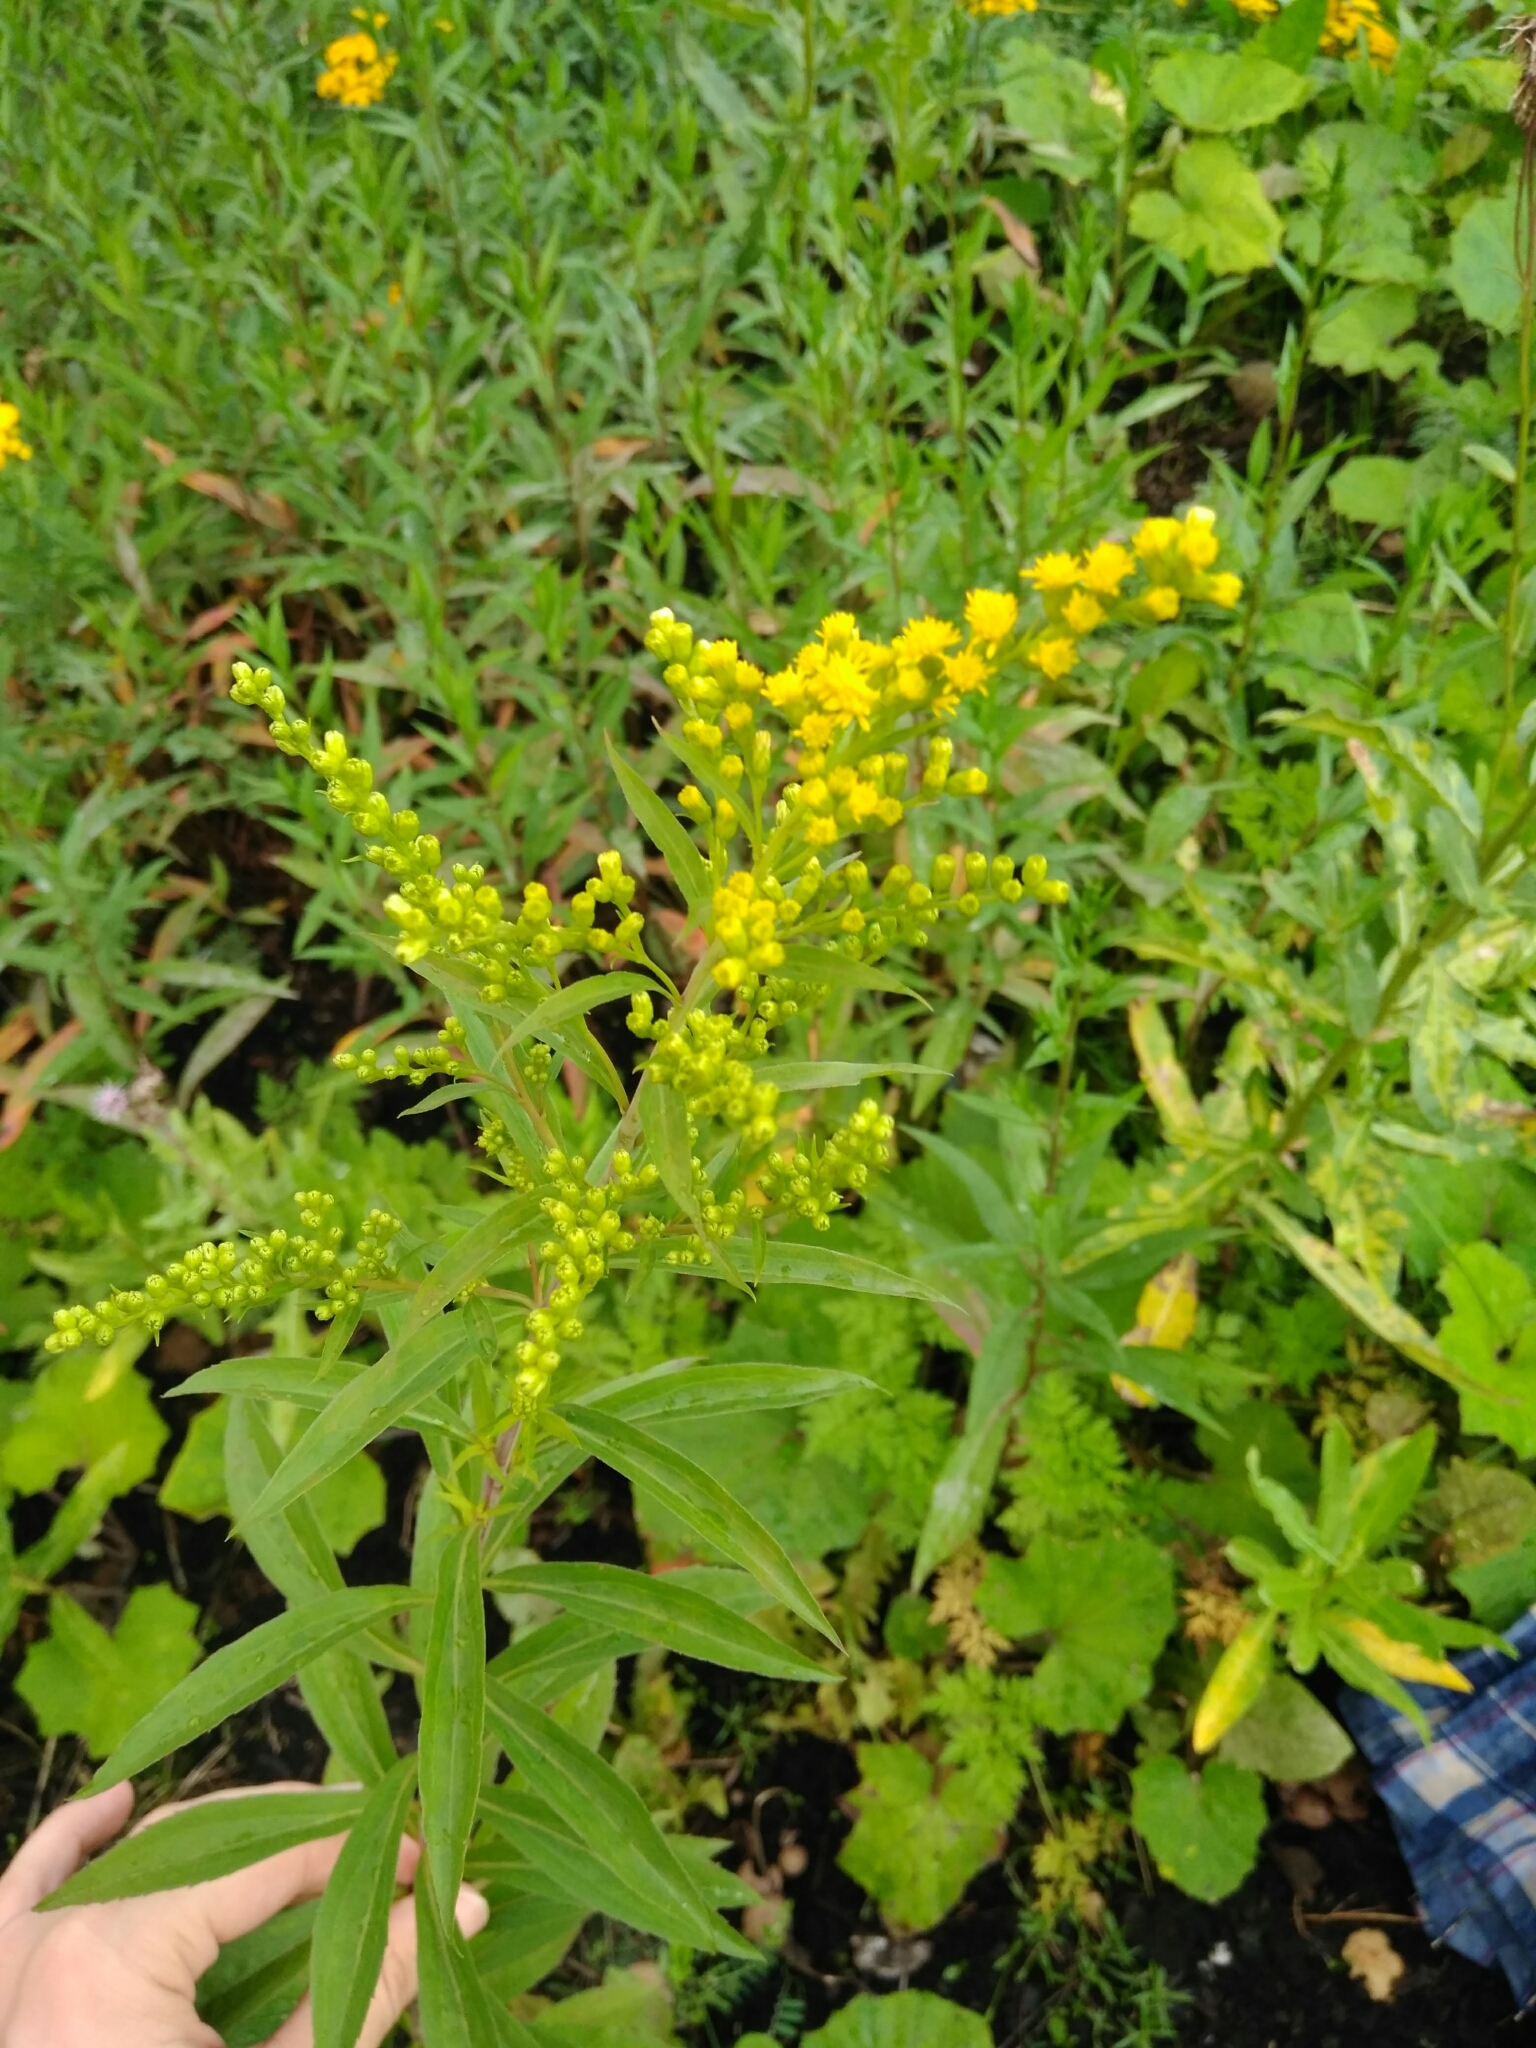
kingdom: Plantae
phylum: Tracheophyta
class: Magnoliopsida
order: Asterales
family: Asteraceae
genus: Solidago
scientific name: Solidago gigantea
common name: Giant goldenrod
